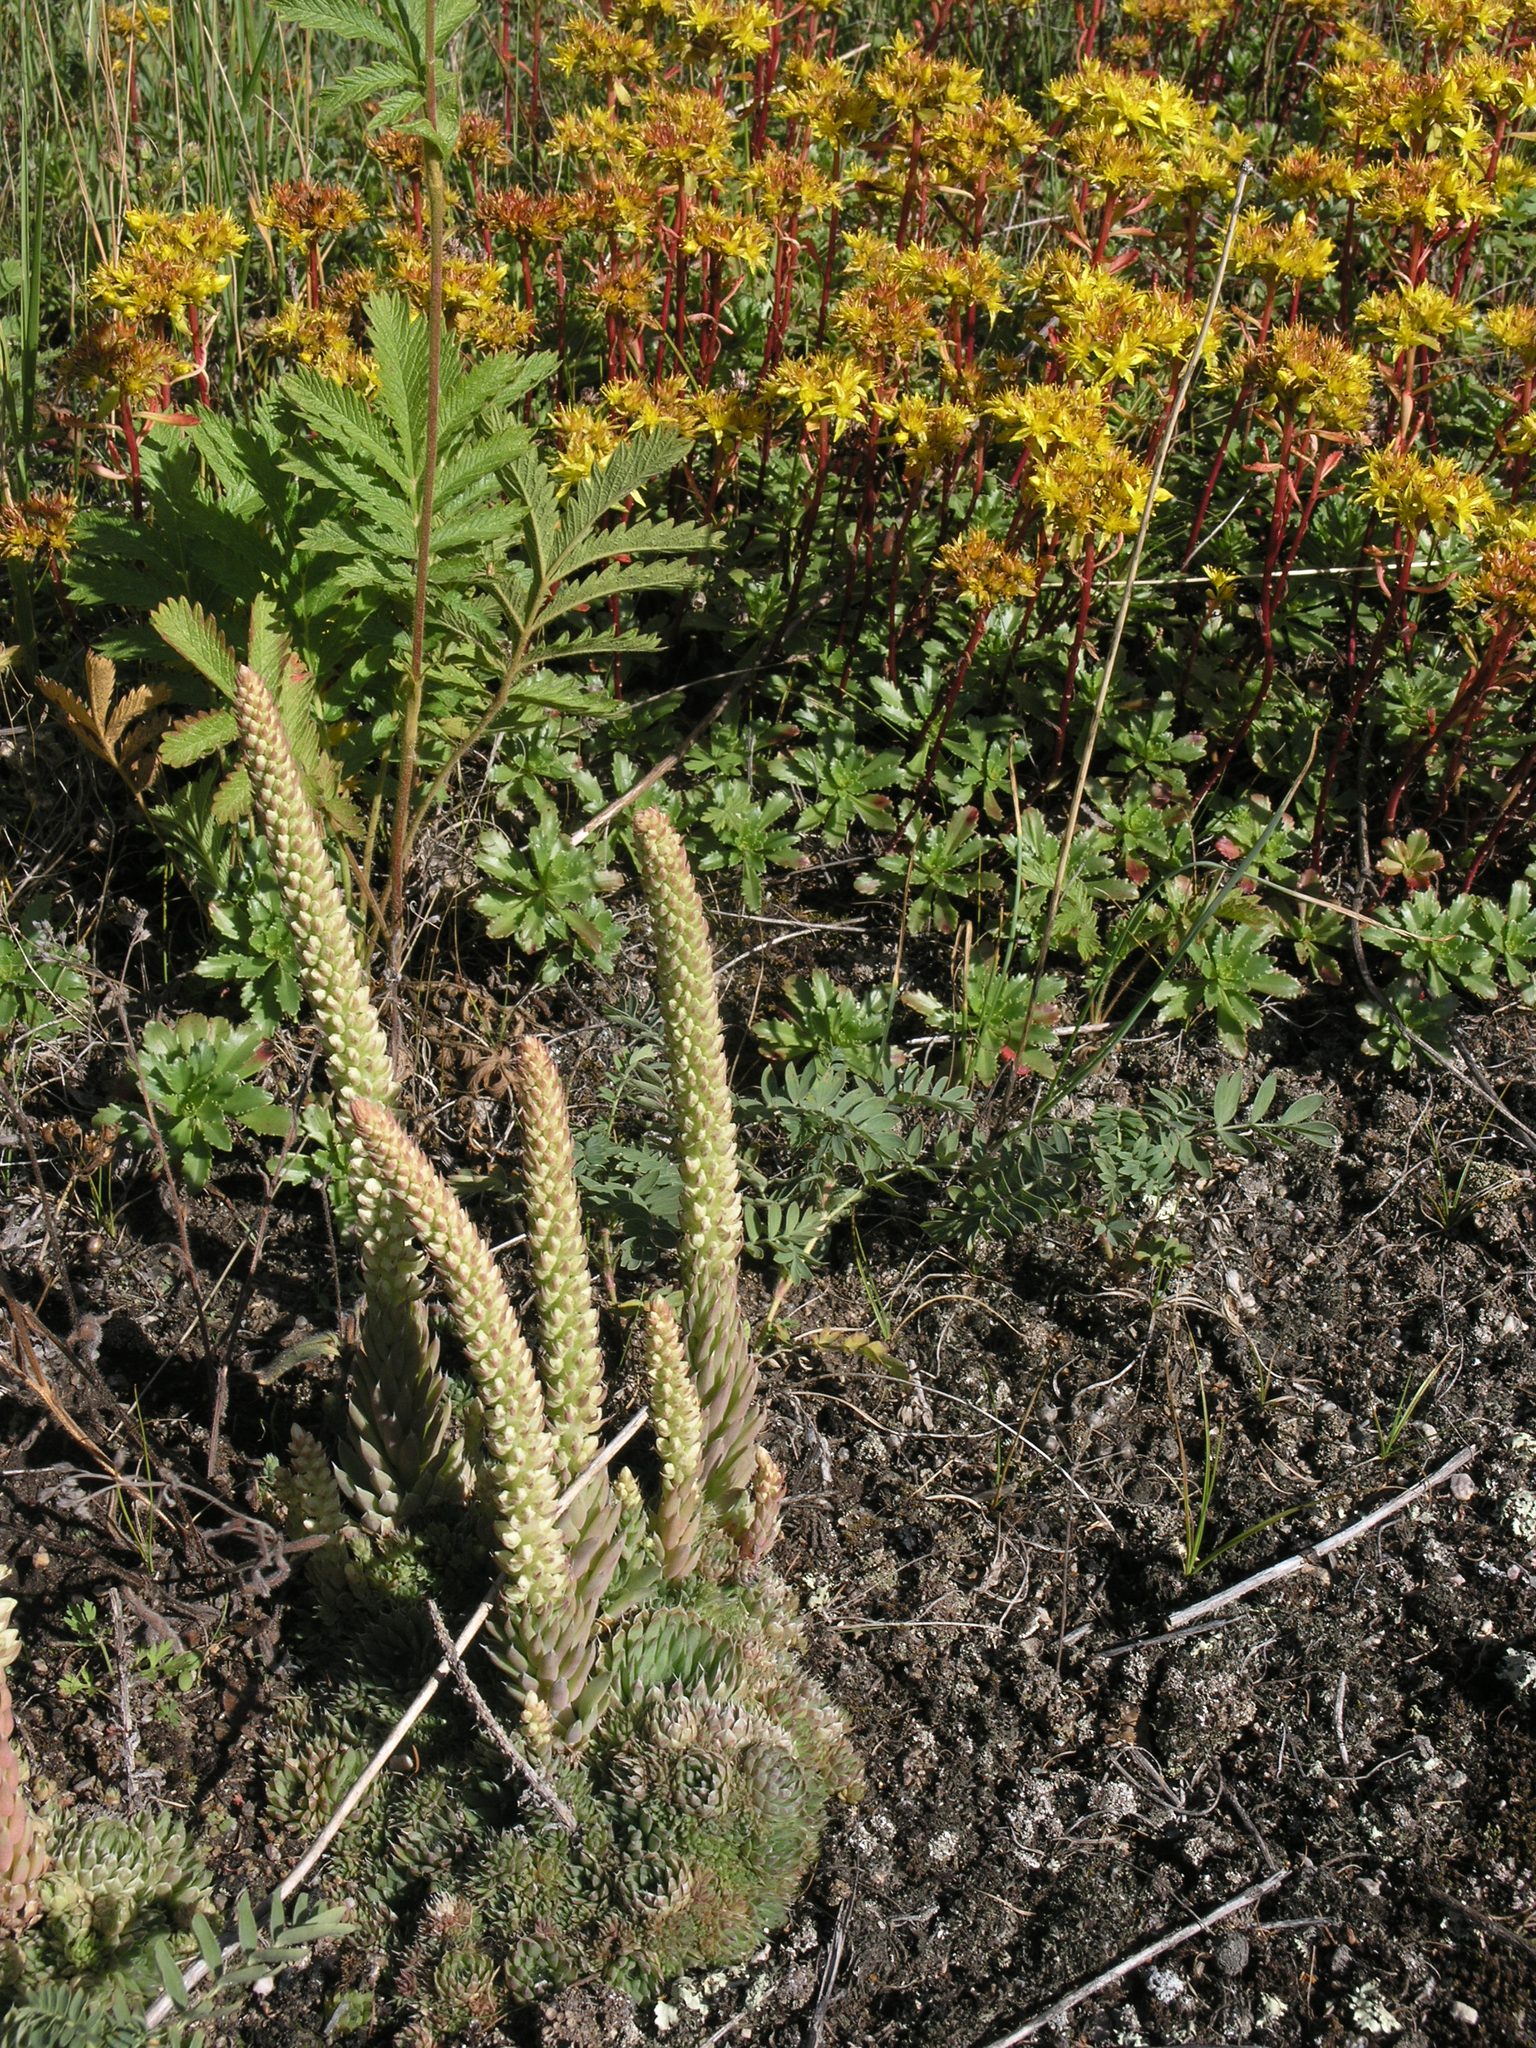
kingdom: Plantae
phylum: Tracheophyta
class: Magnoliopsida
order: Saxifragales
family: Crassulaceae
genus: Phedimus
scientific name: Phedimus hybridus
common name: Hybrid stonecrop
